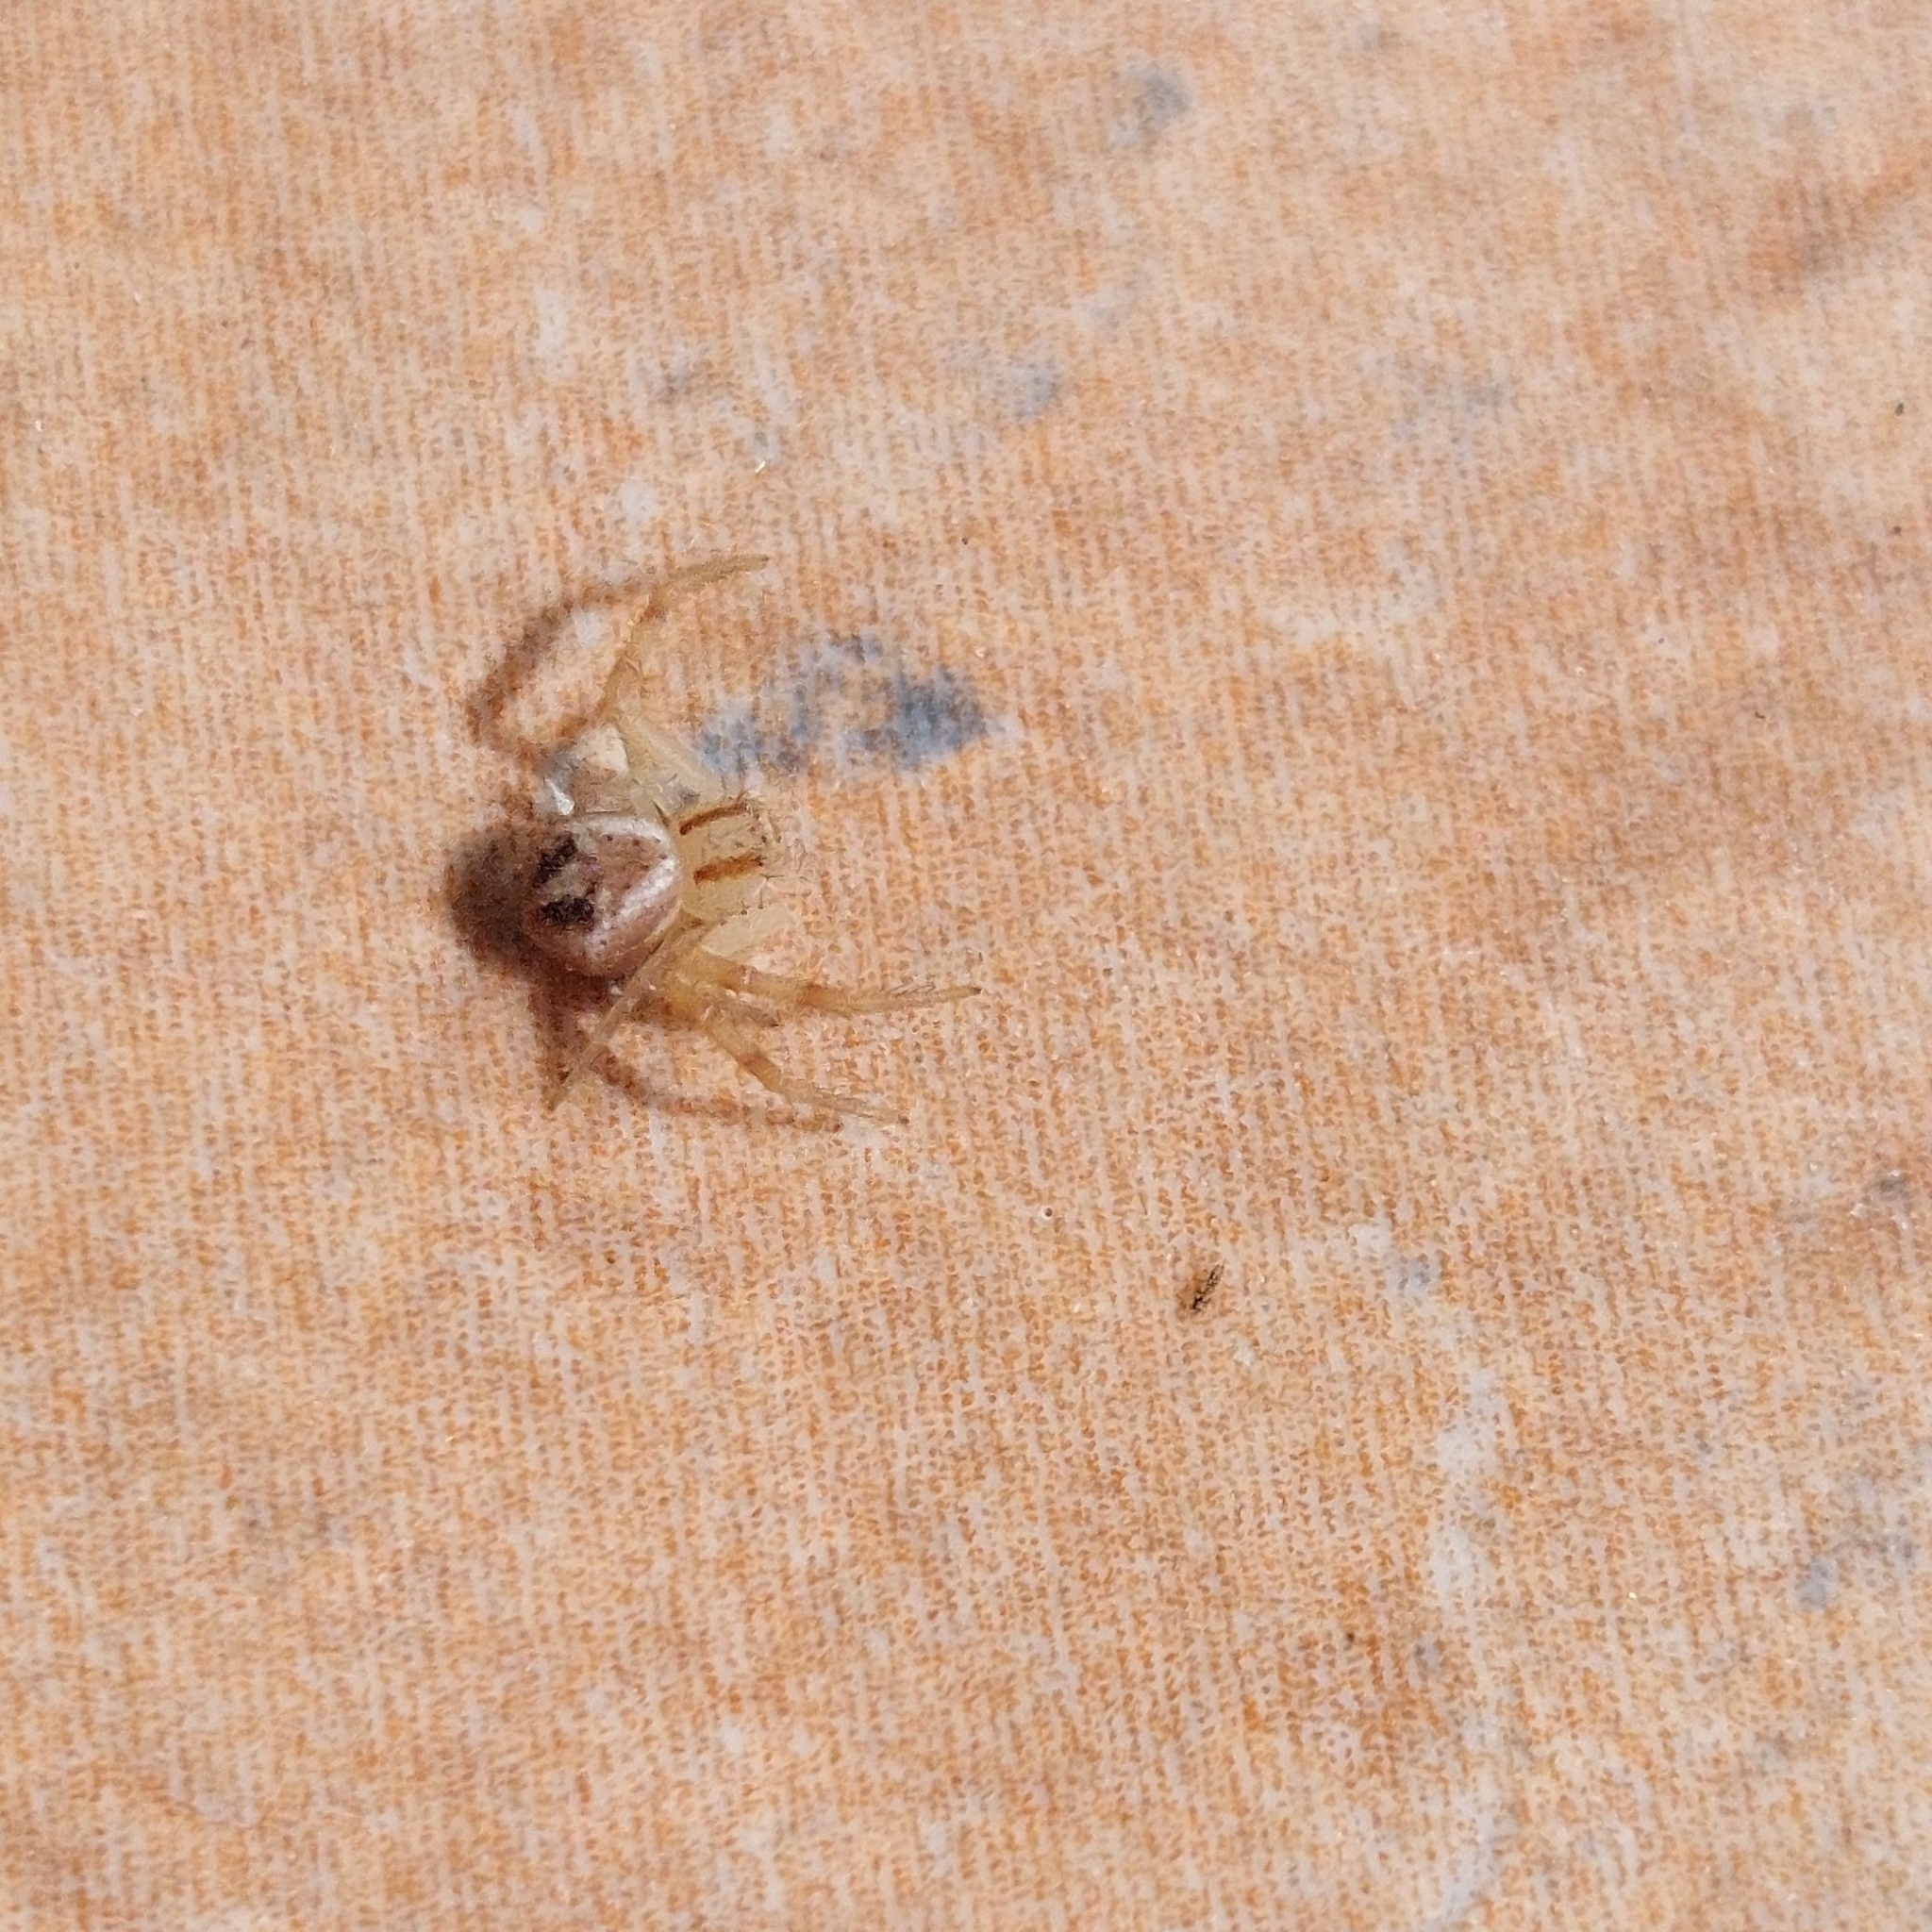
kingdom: Animalia
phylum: Arthropoda
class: Arachnida
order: Araneae
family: Thomisidae
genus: Misumenops
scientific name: Misumenops
